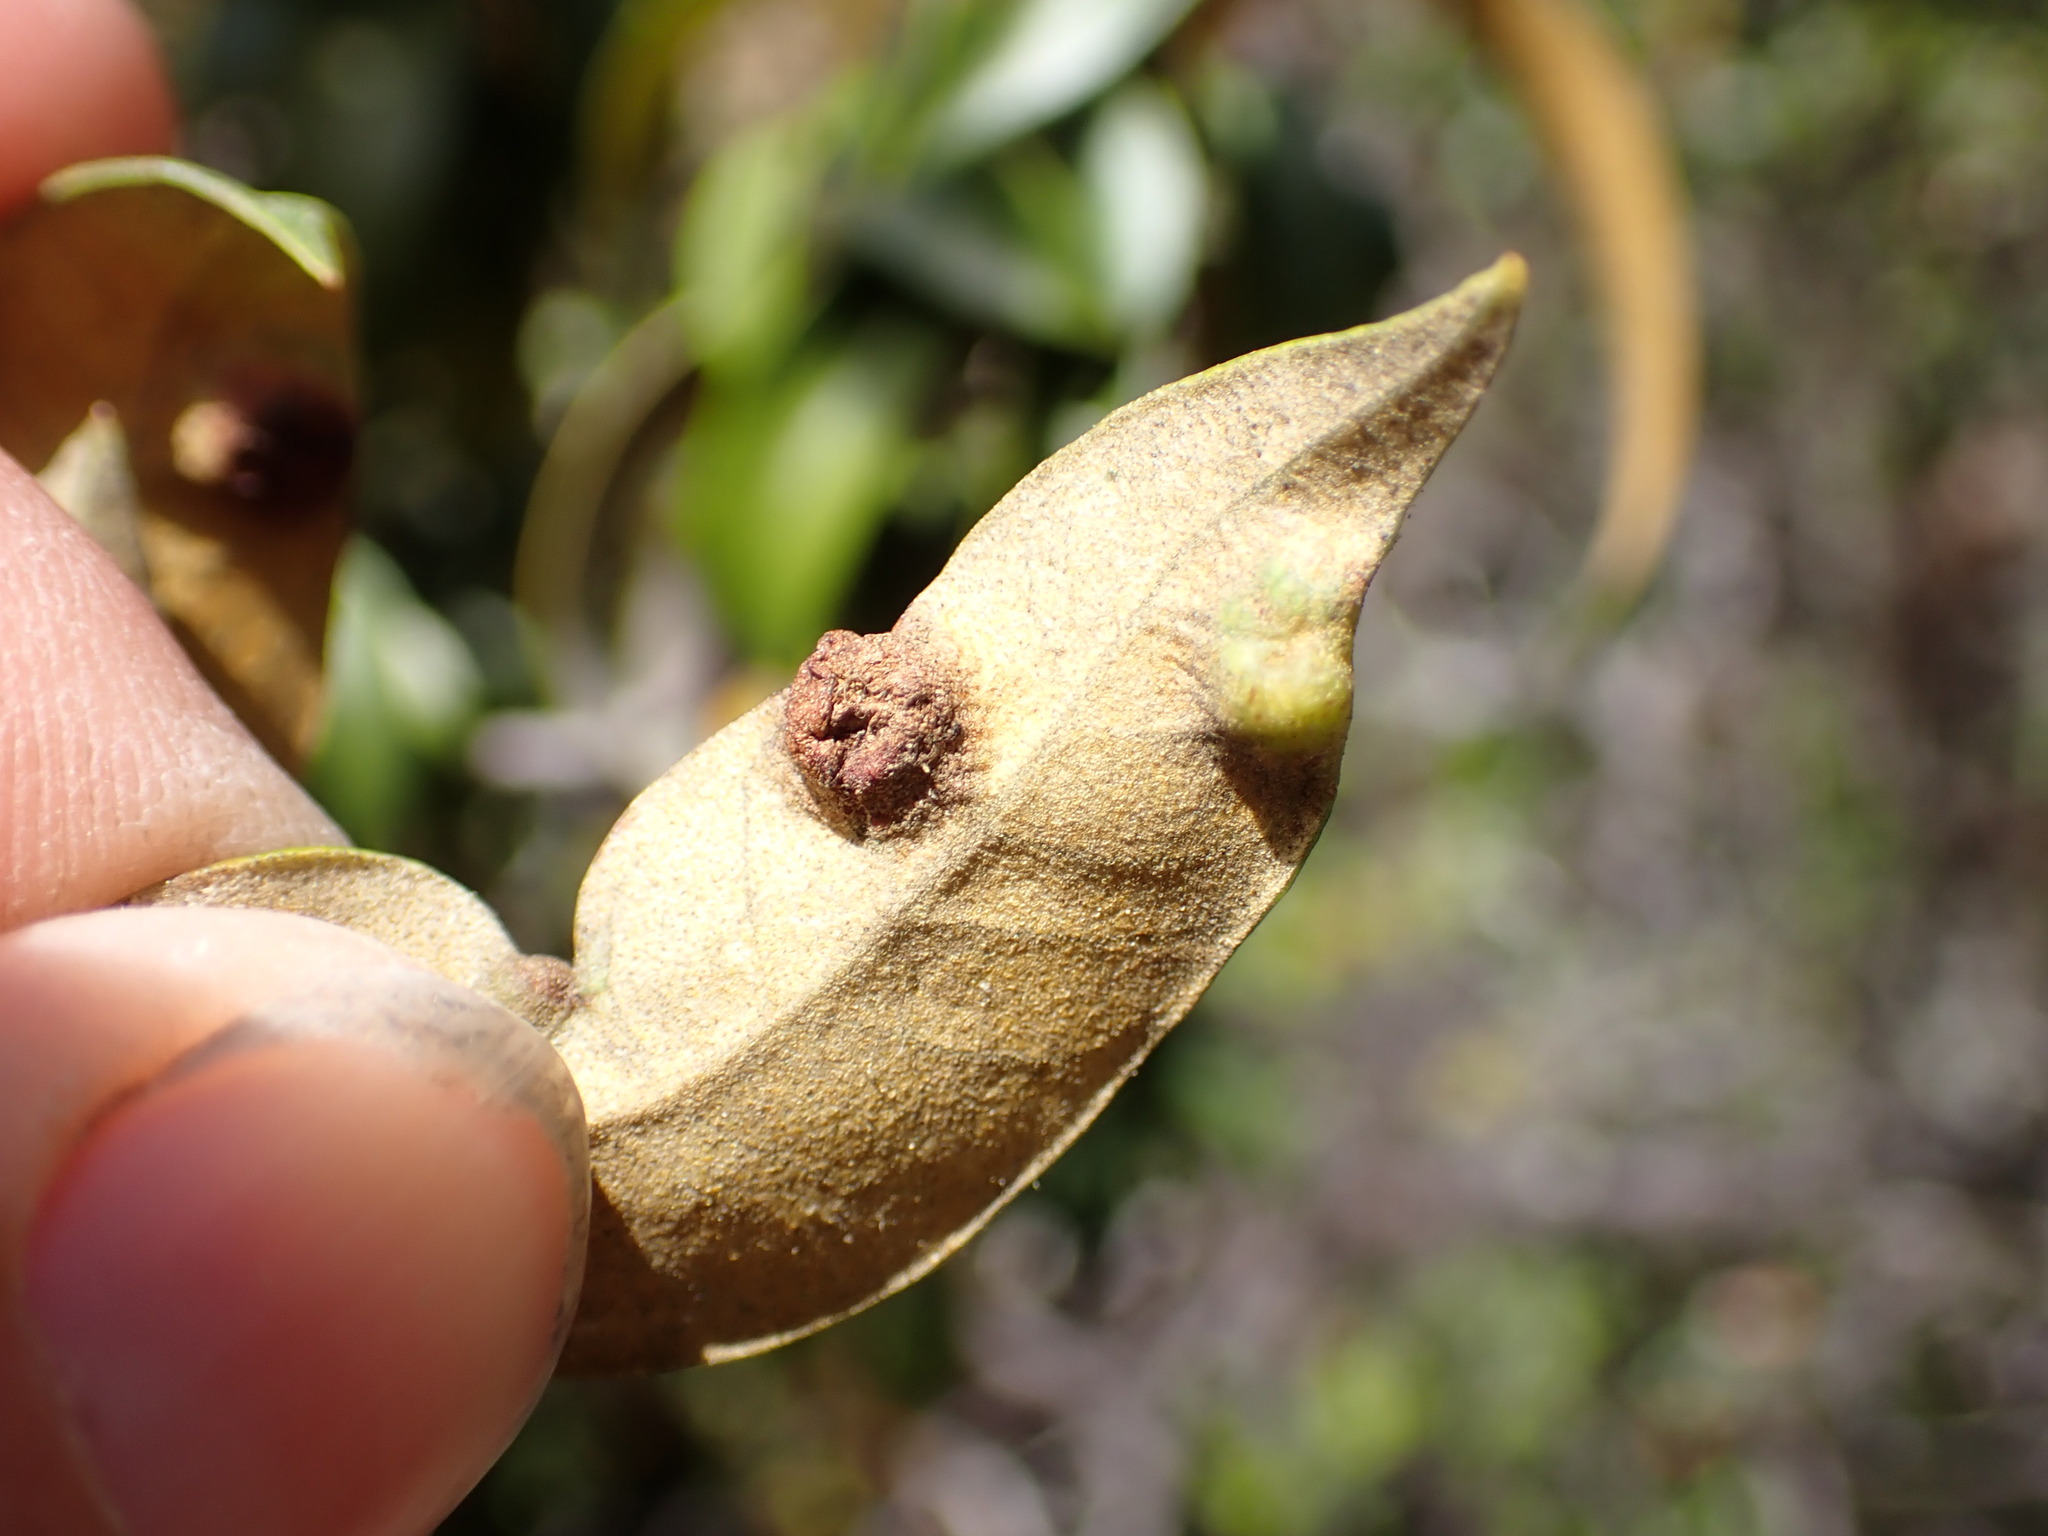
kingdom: Animalia
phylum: Arthropoda
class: Insecta
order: Hymenoptera
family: Cynipidae
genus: Dryocosmus
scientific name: Dryocosmus juliae
